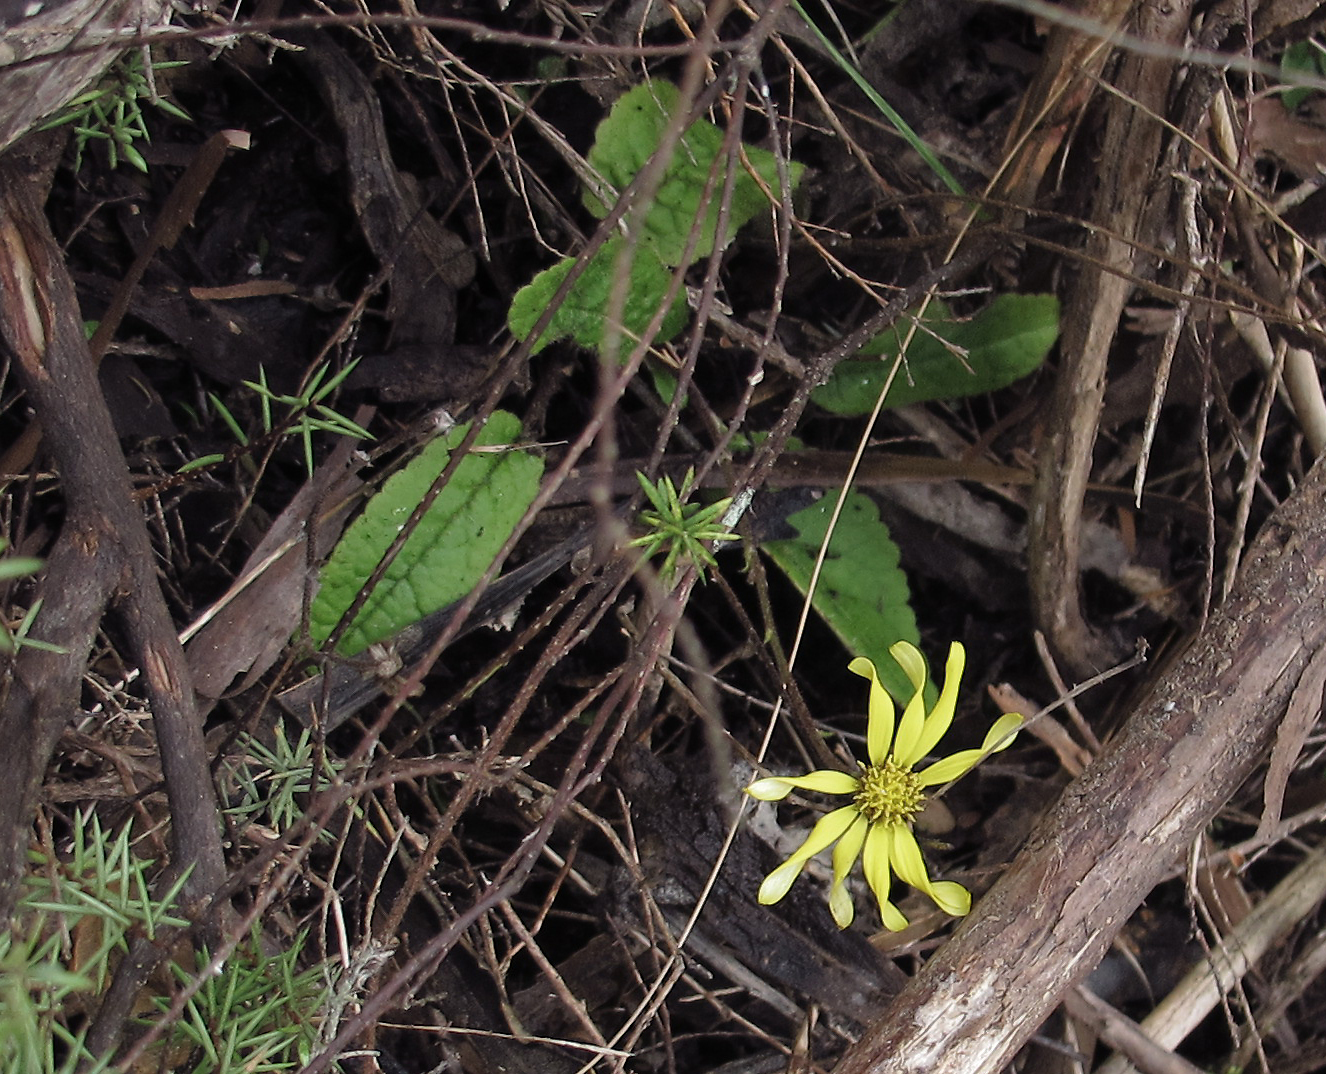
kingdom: Plantae
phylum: Tracheophyta
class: Magnoliopsida
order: Asterales
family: Asteraceae
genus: Brachyglottis
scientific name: Brachyglottis lagopus
